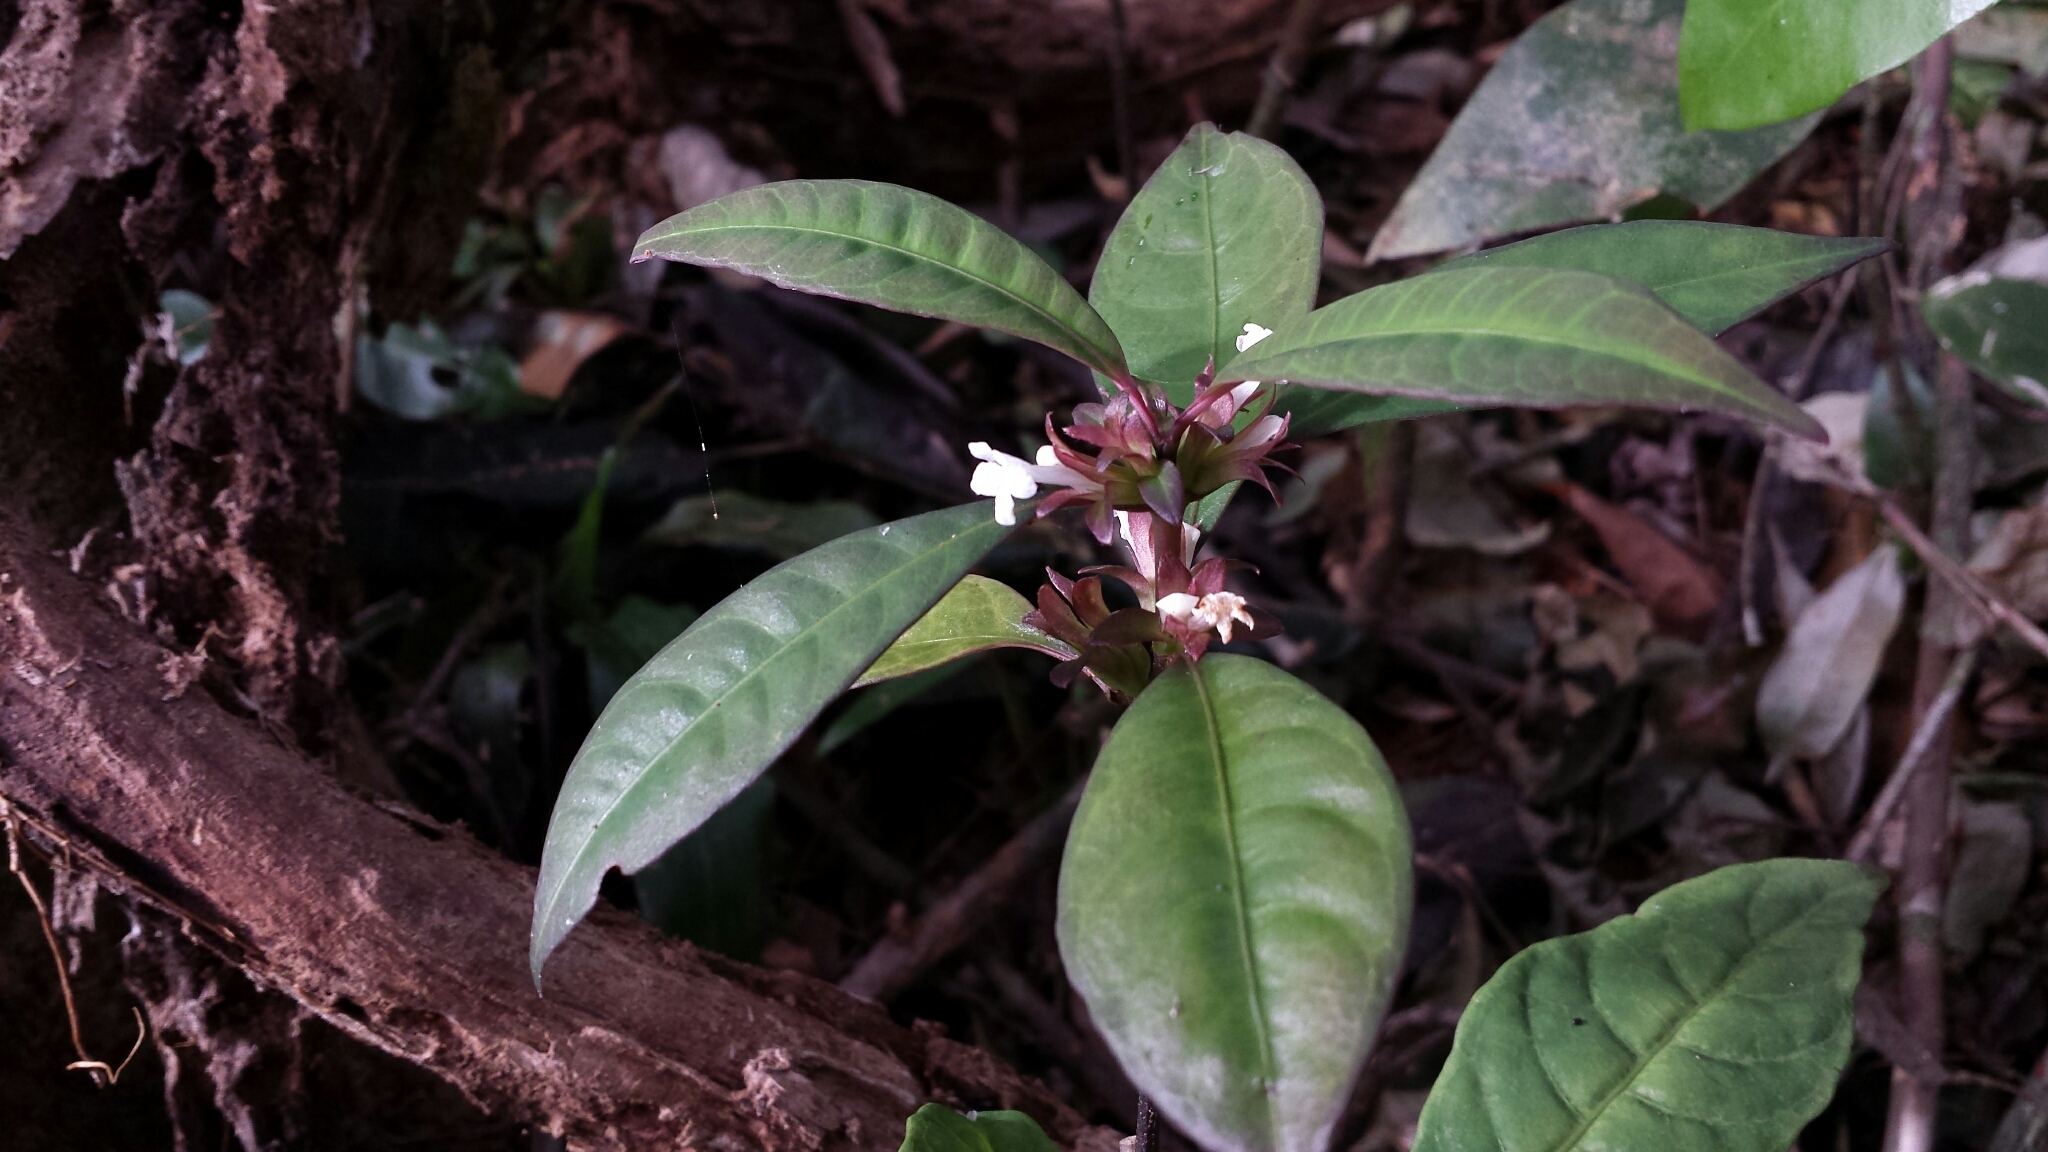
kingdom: Plantae
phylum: Tracheophyta
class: Magnoliopsida
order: Lamiales
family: Acanthaceae
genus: Pseudodicliptera
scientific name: Pseudodicliptera coursii
